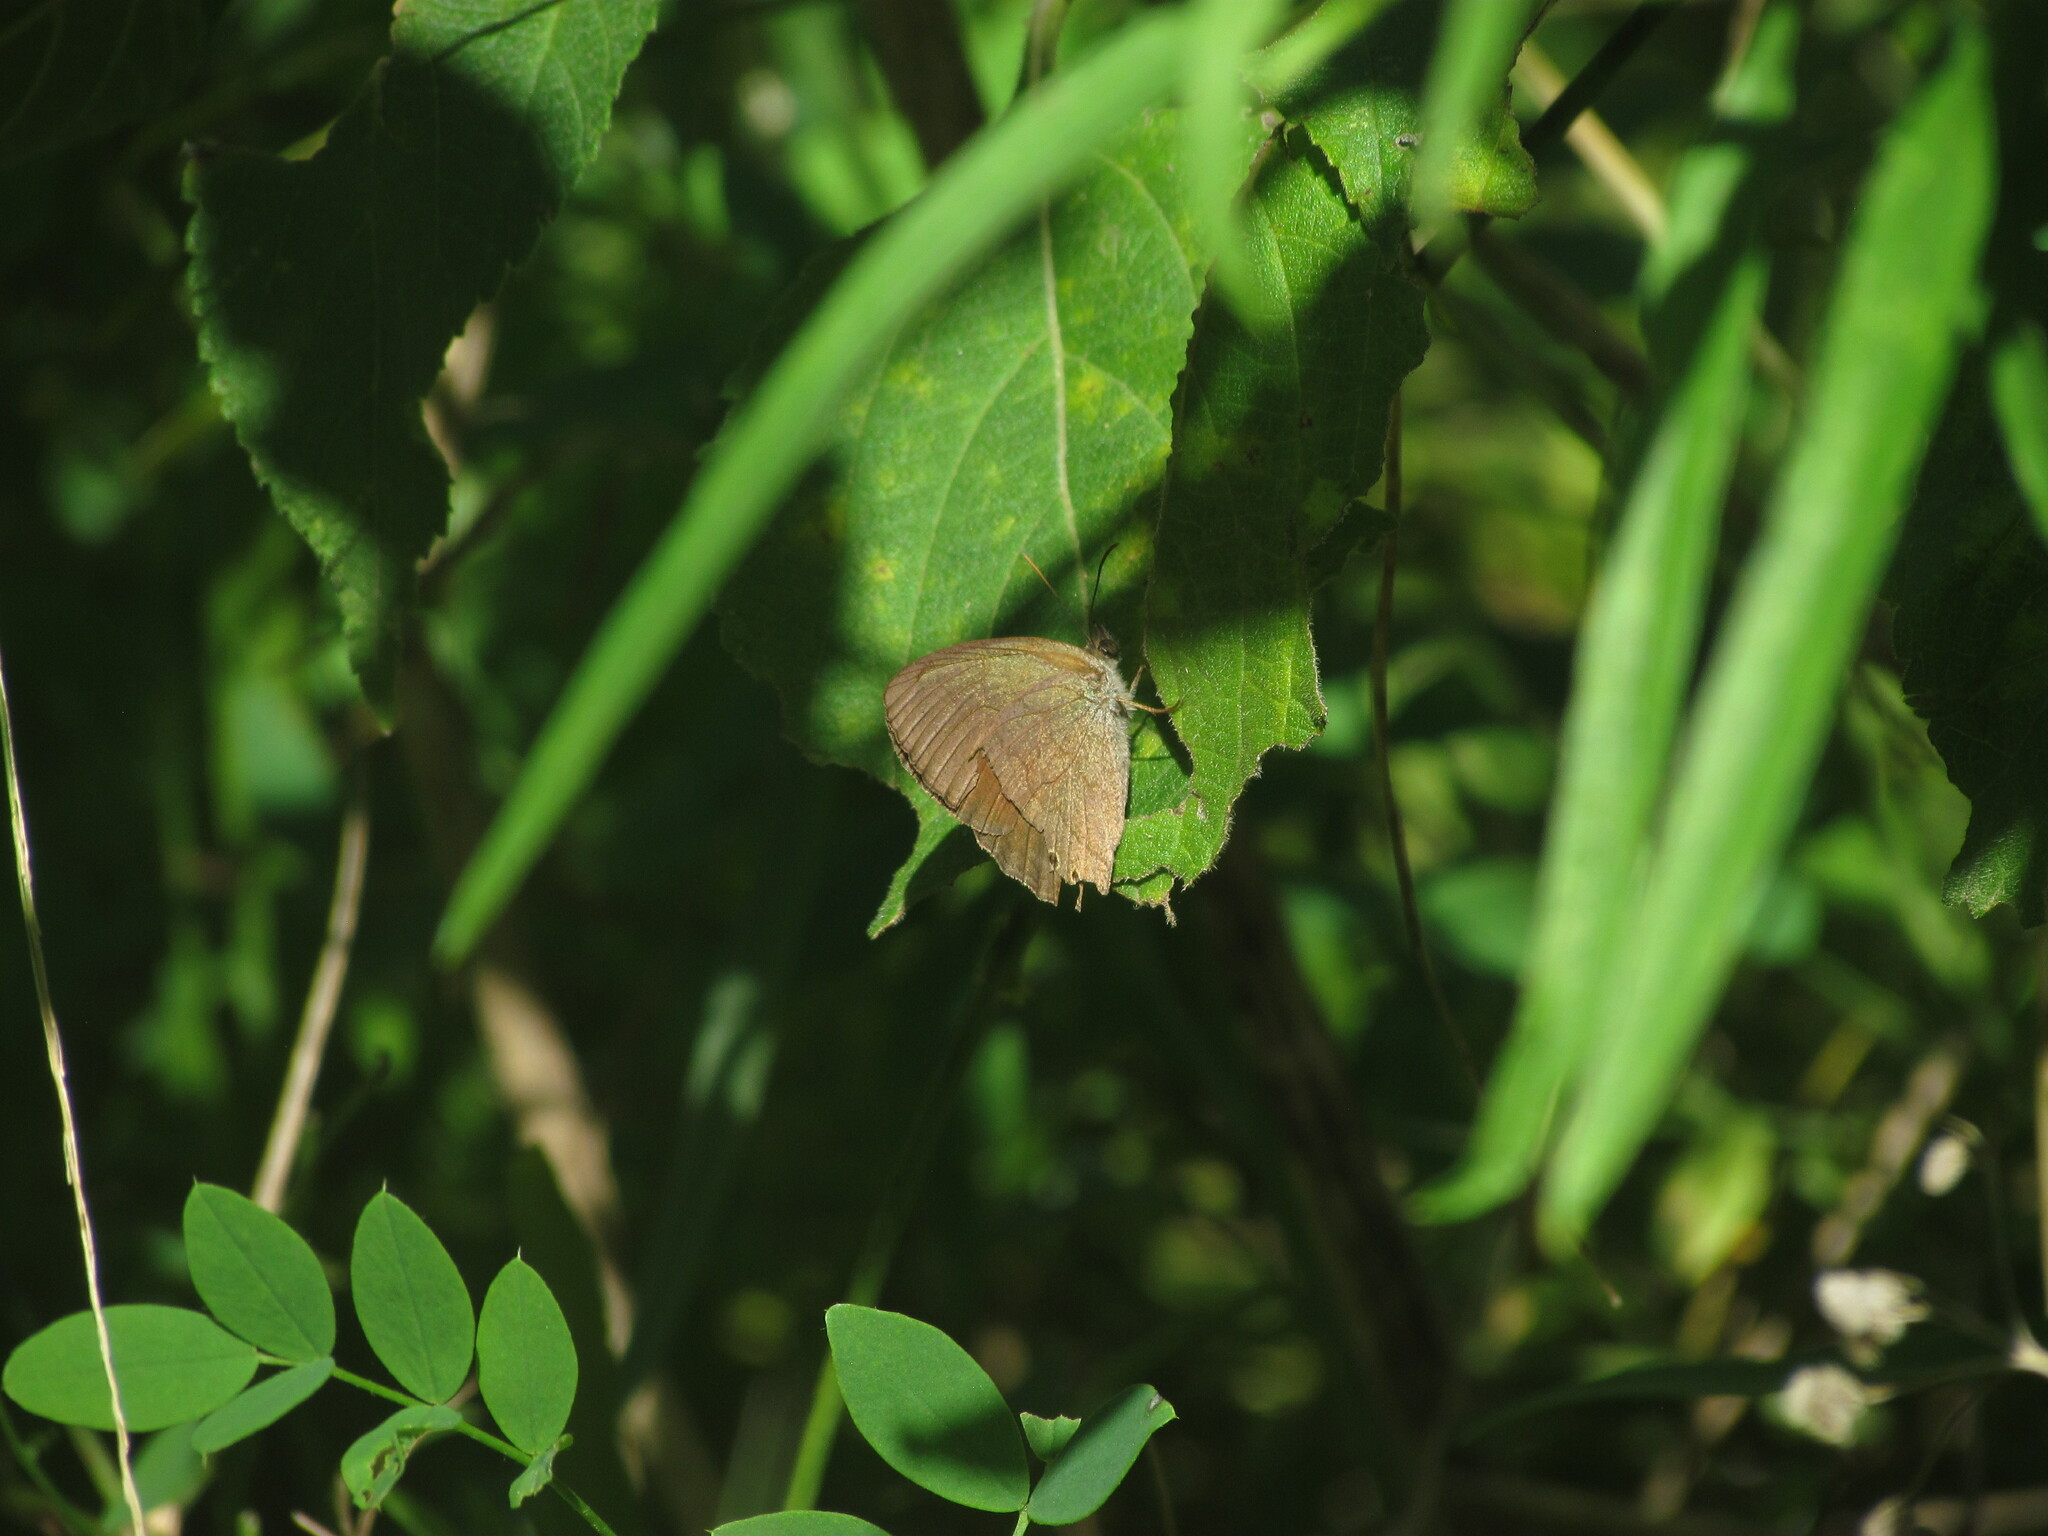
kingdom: Animalia
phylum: Arthropoda
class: Insecta
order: Lepidoptera
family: Nymphalidae
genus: Yphthimoides
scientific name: Yphthimoides celmis
